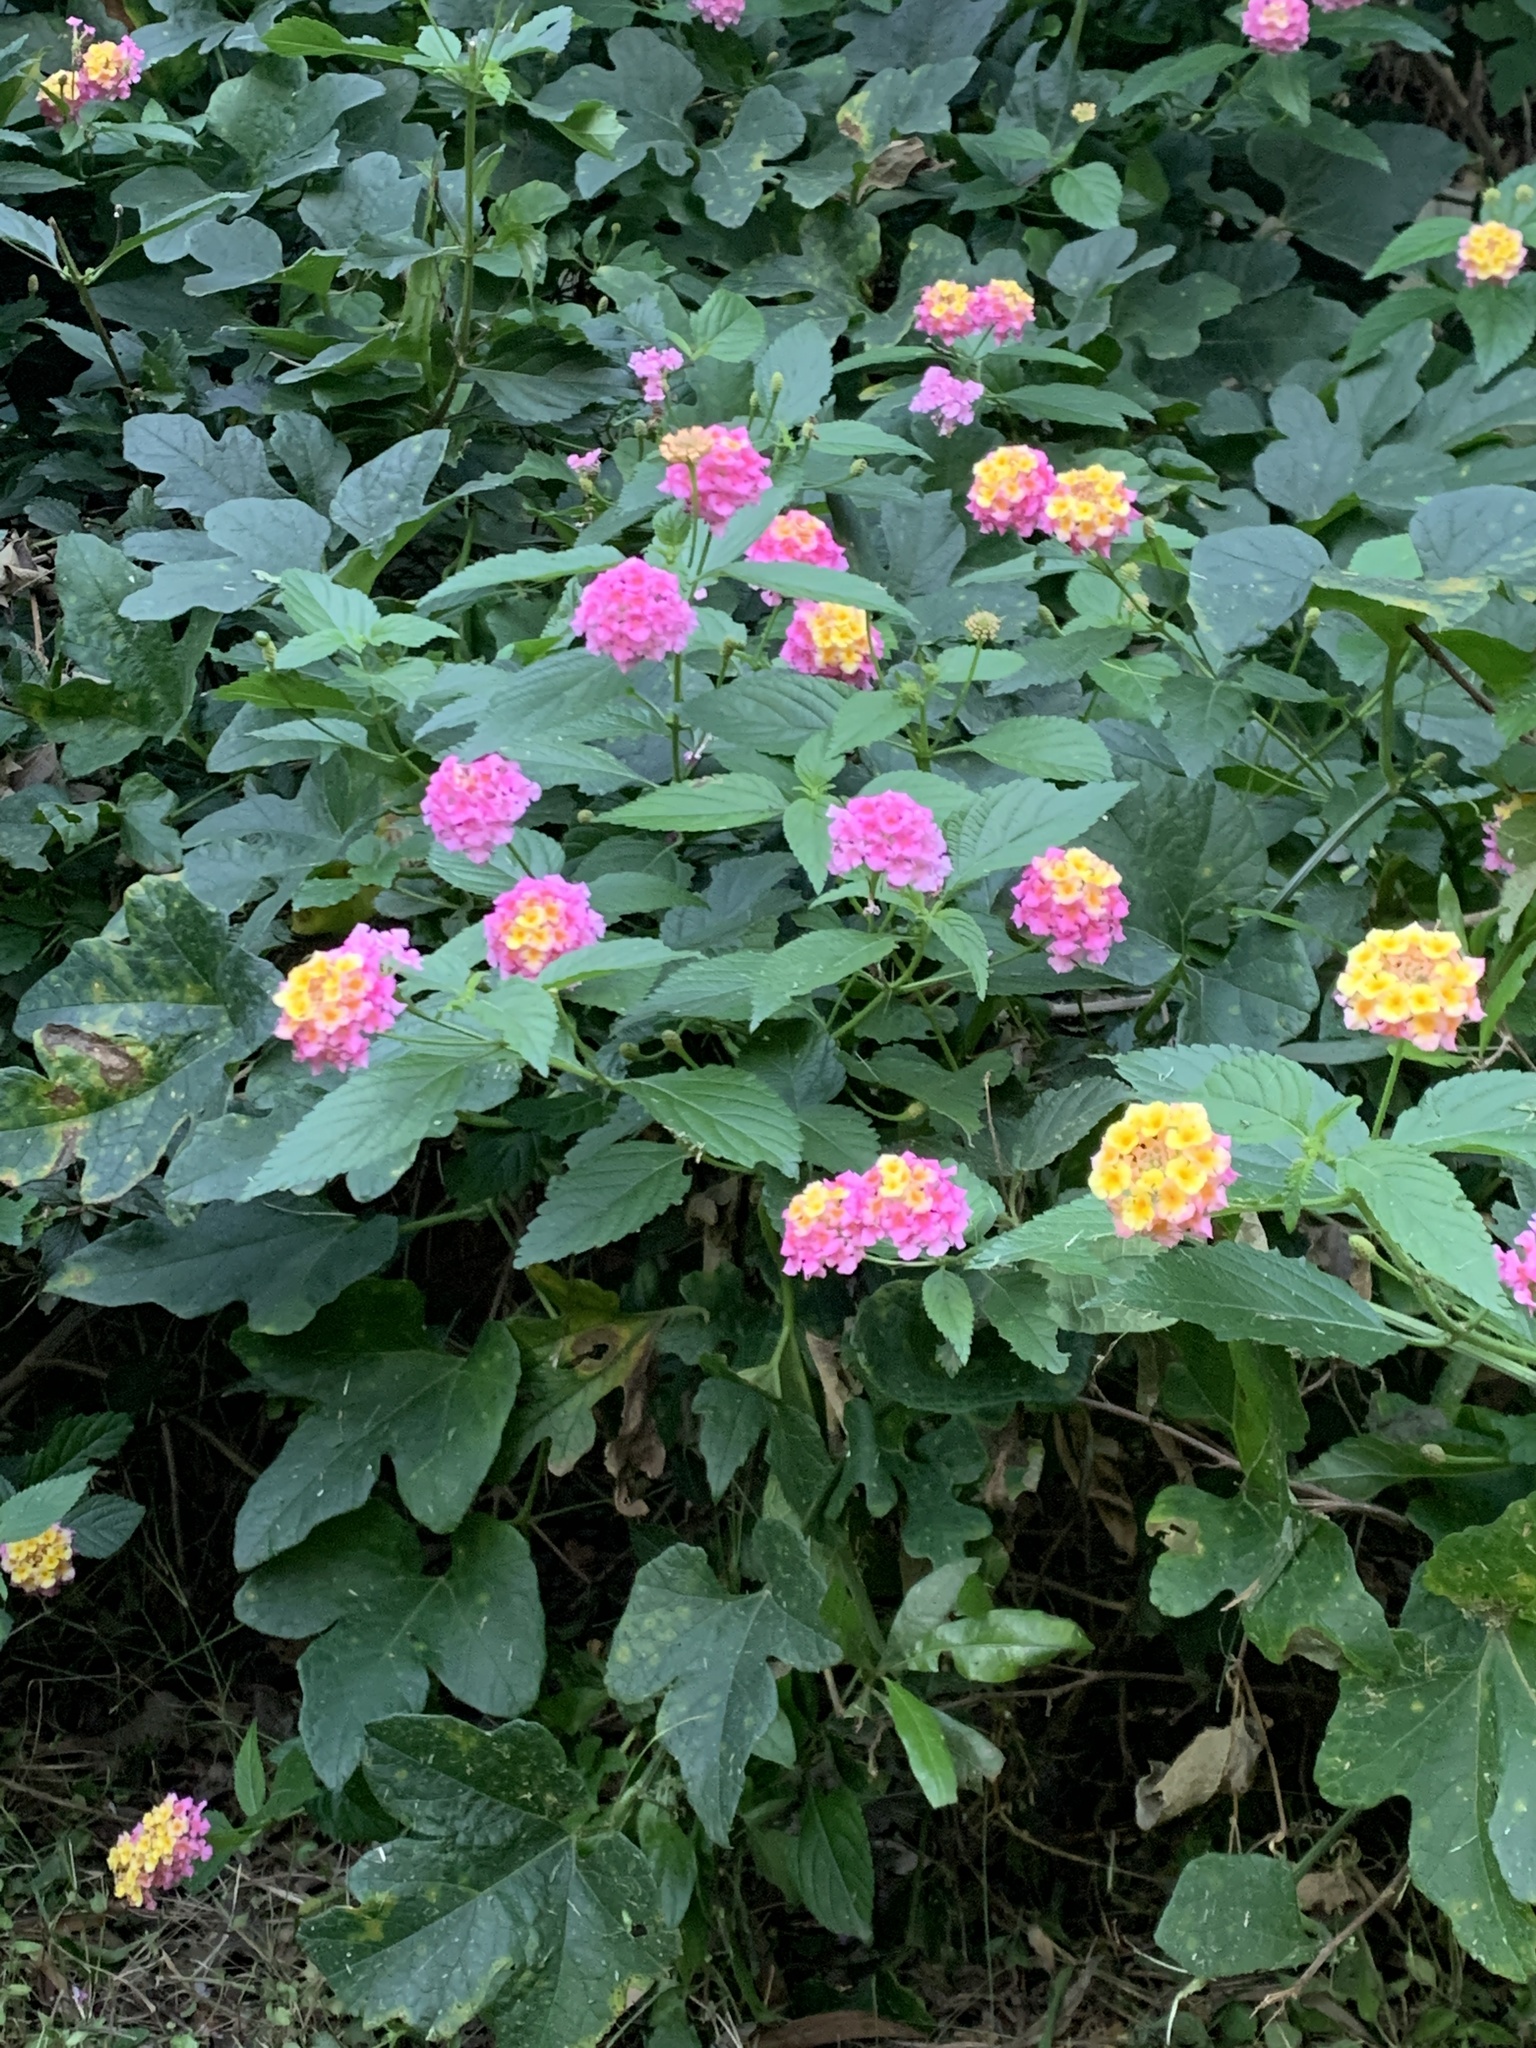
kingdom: Plantae
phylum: Tracheophyta
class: Magnoliopsida
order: Lamiales
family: Verbenaceae
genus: Lantana
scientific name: Lantana camara
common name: Lantana
